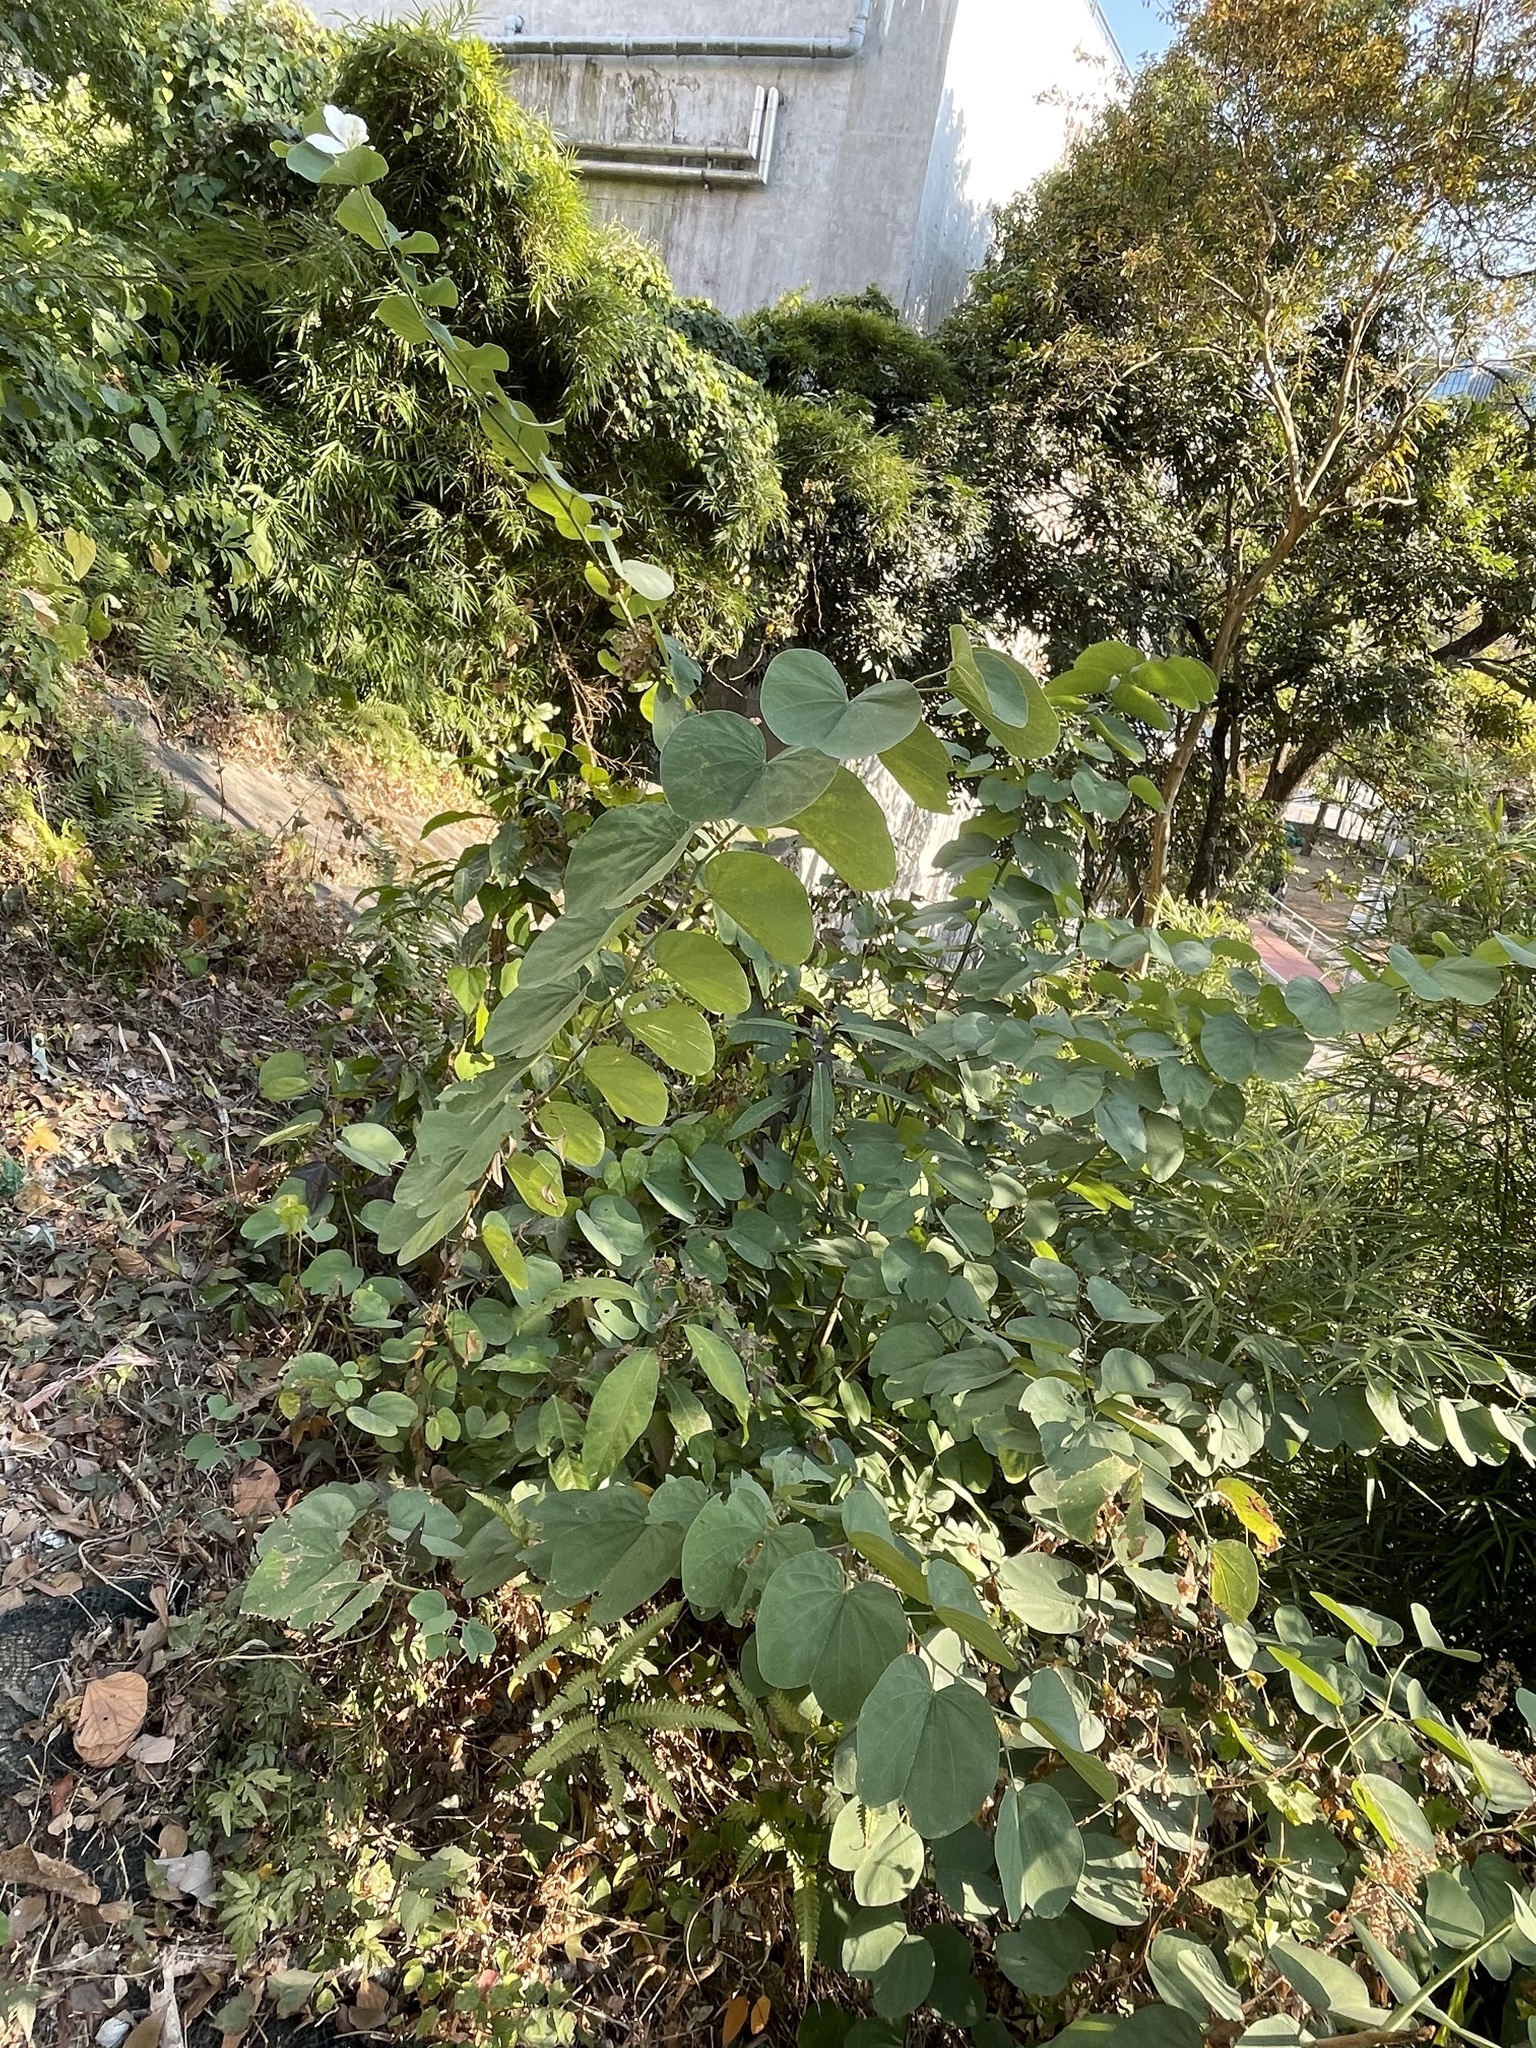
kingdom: Plantae
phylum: Tracheophyta
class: Magnoliopsida
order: Fabales
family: Fabaceae
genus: Bauhinia
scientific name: Bauhinia variegata
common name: Mountain ebony
